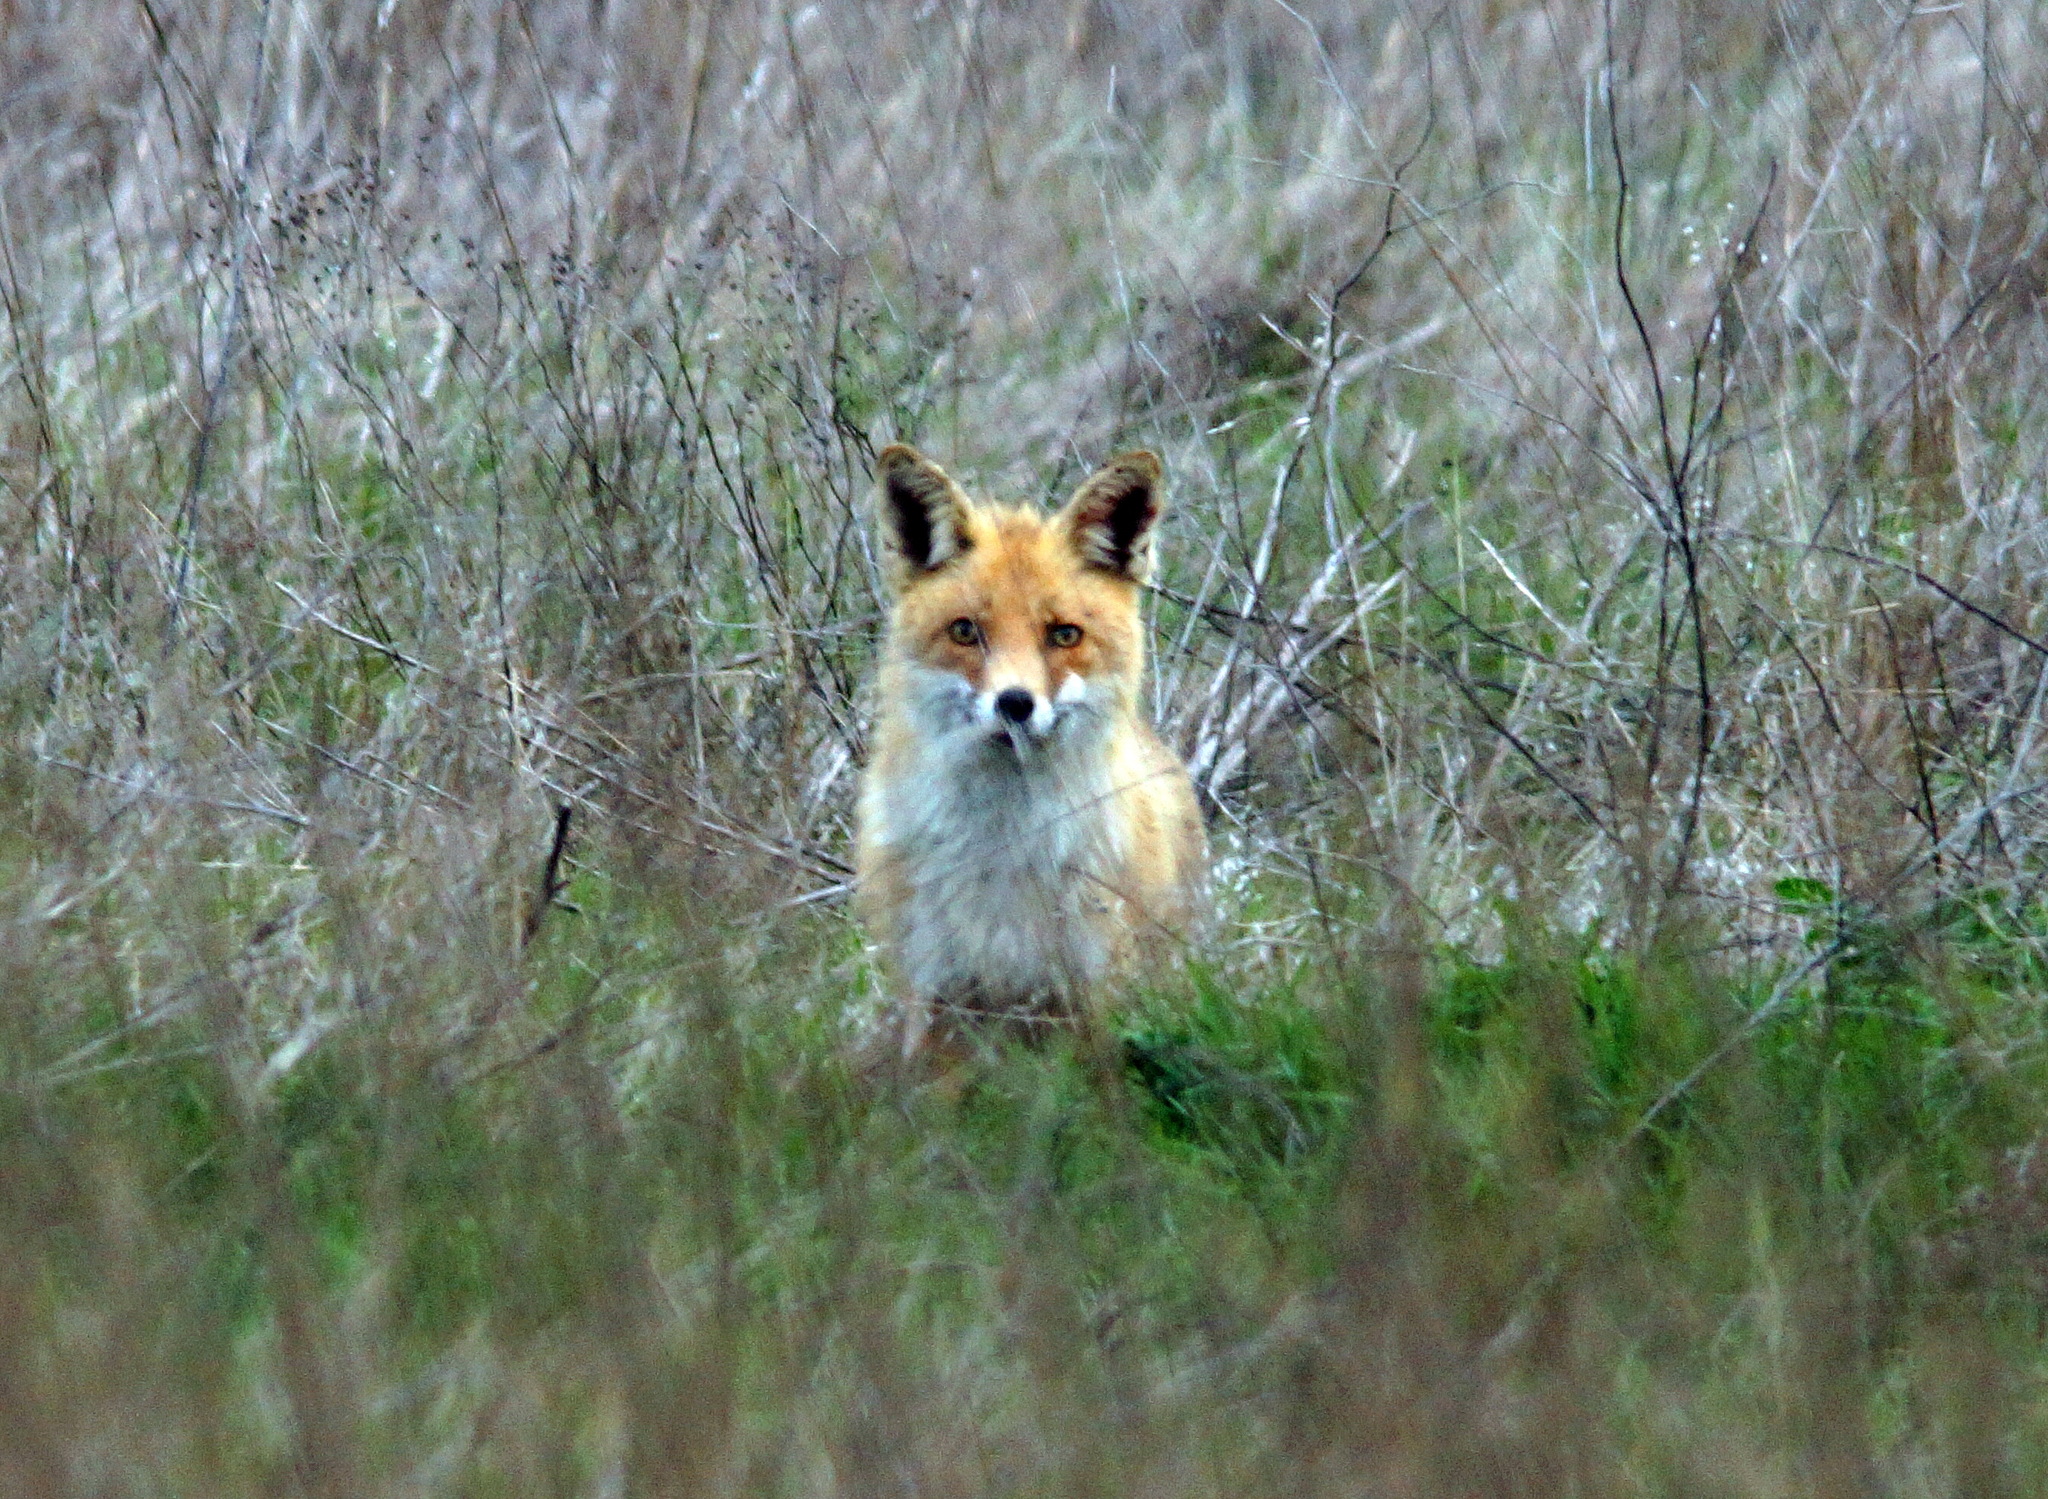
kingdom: Animalia
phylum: Chordata
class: Mammalia
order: Carnivora
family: Canidae
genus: Vulpes
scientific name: Vulpes vulpes
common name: Red fox
